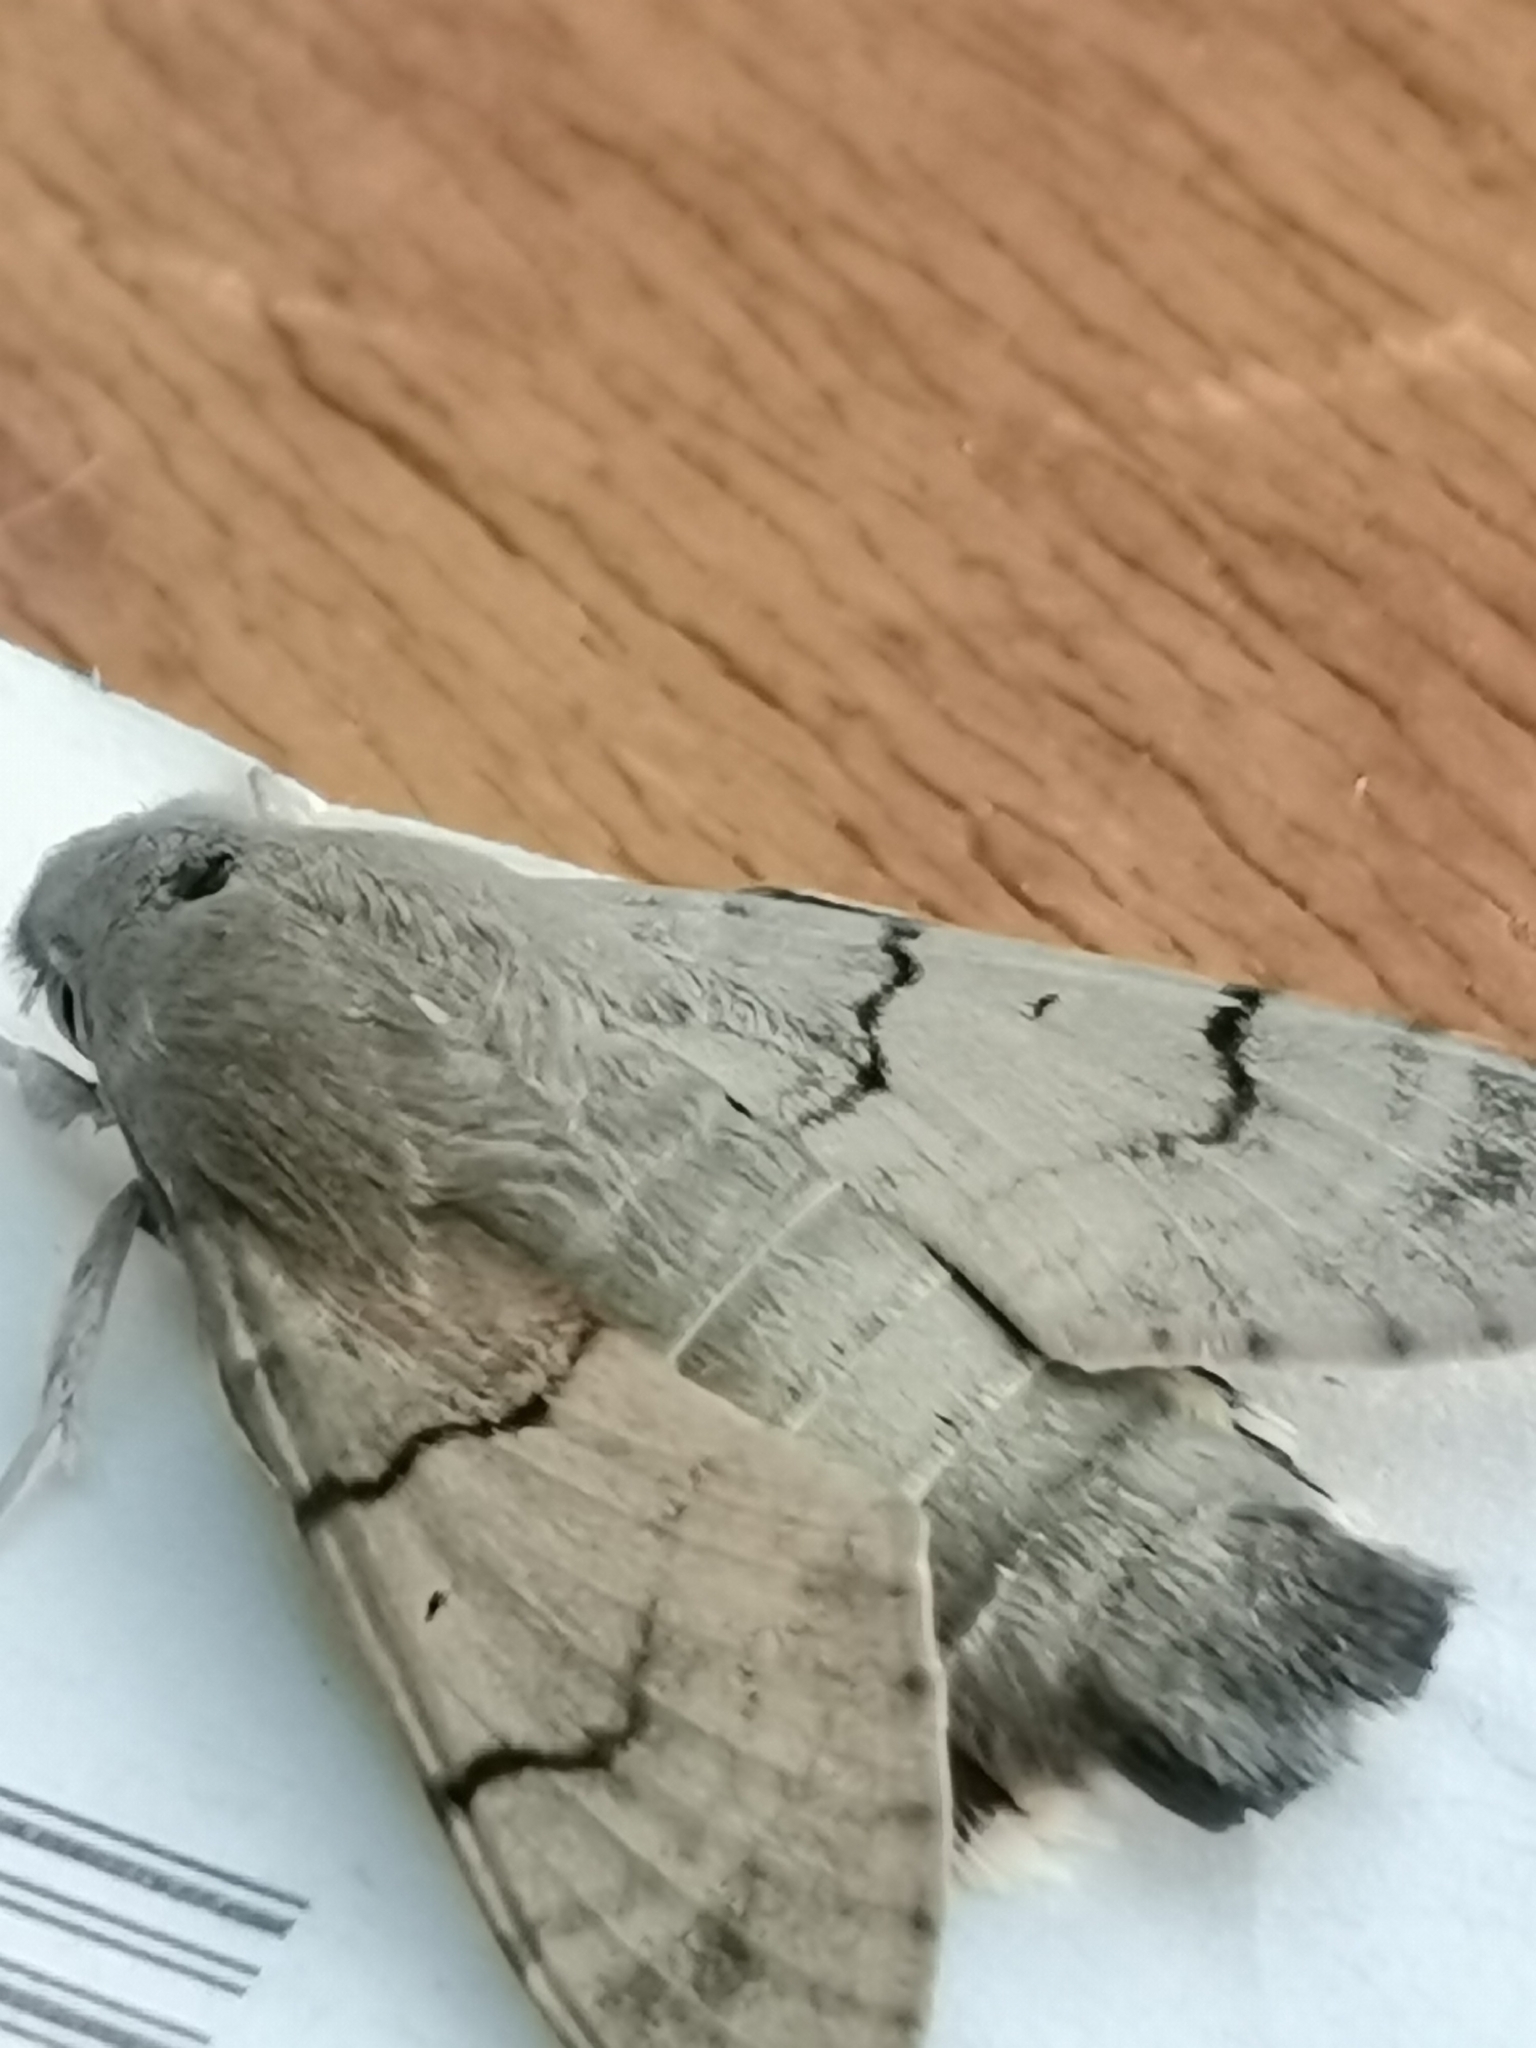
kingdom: Animalia
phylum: Arthropoda
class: Insecta
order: Lepidoptera
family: Sphingidae
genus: Macroglossum
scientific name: Macroglossum stellatarum
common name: Humming-bird hawk-moth
